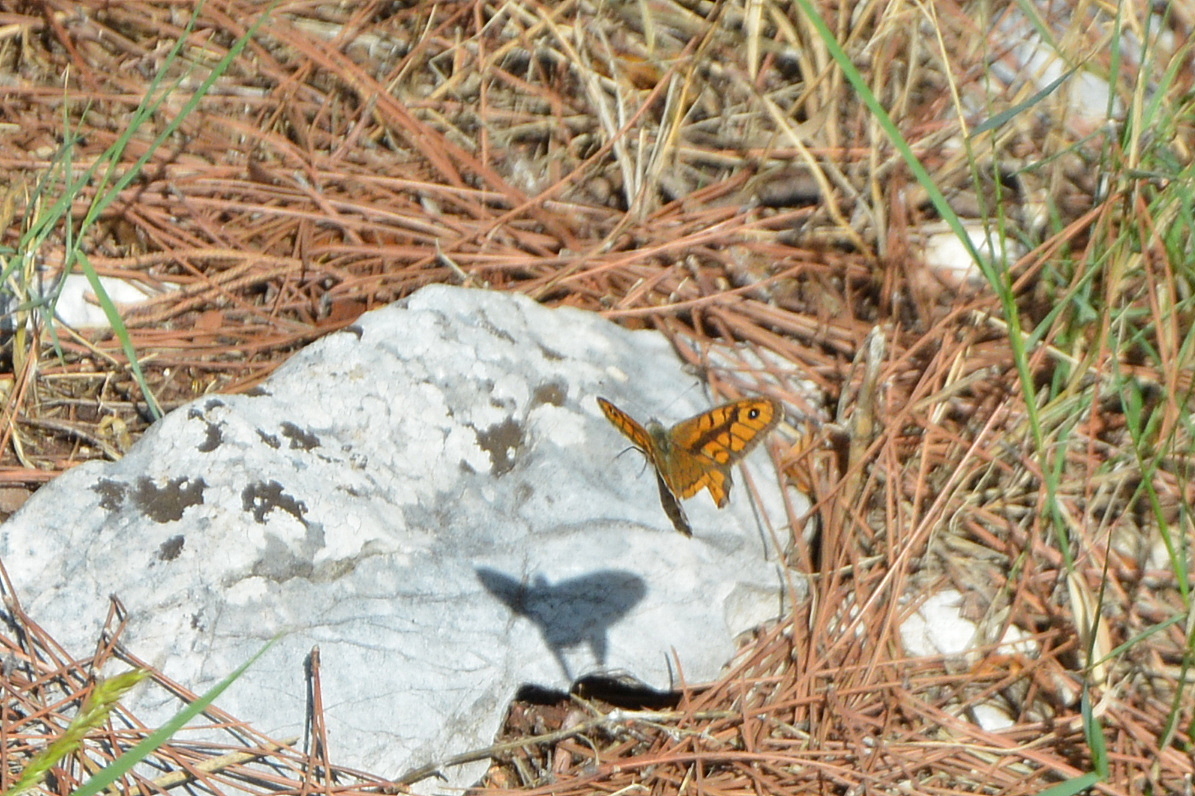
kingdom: Animalia
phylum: Arthropoda
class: Insecta
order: Lepidoptera
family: Nymphalidae
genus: Pararge
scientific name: Pararge Lasiommata megera
